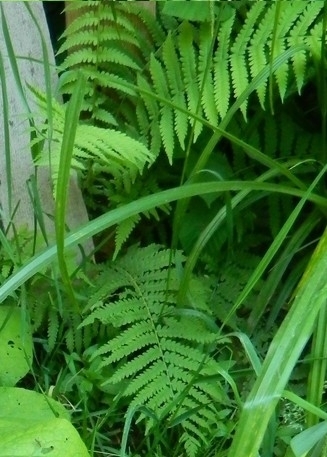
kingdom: Plantae
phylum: Tracheophyta
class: Polypodiopsida
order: Polypodiales
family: Onocleaceae
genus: Matteuccia
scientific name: Matteuccia struthiopteris
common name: Ostrich fern
